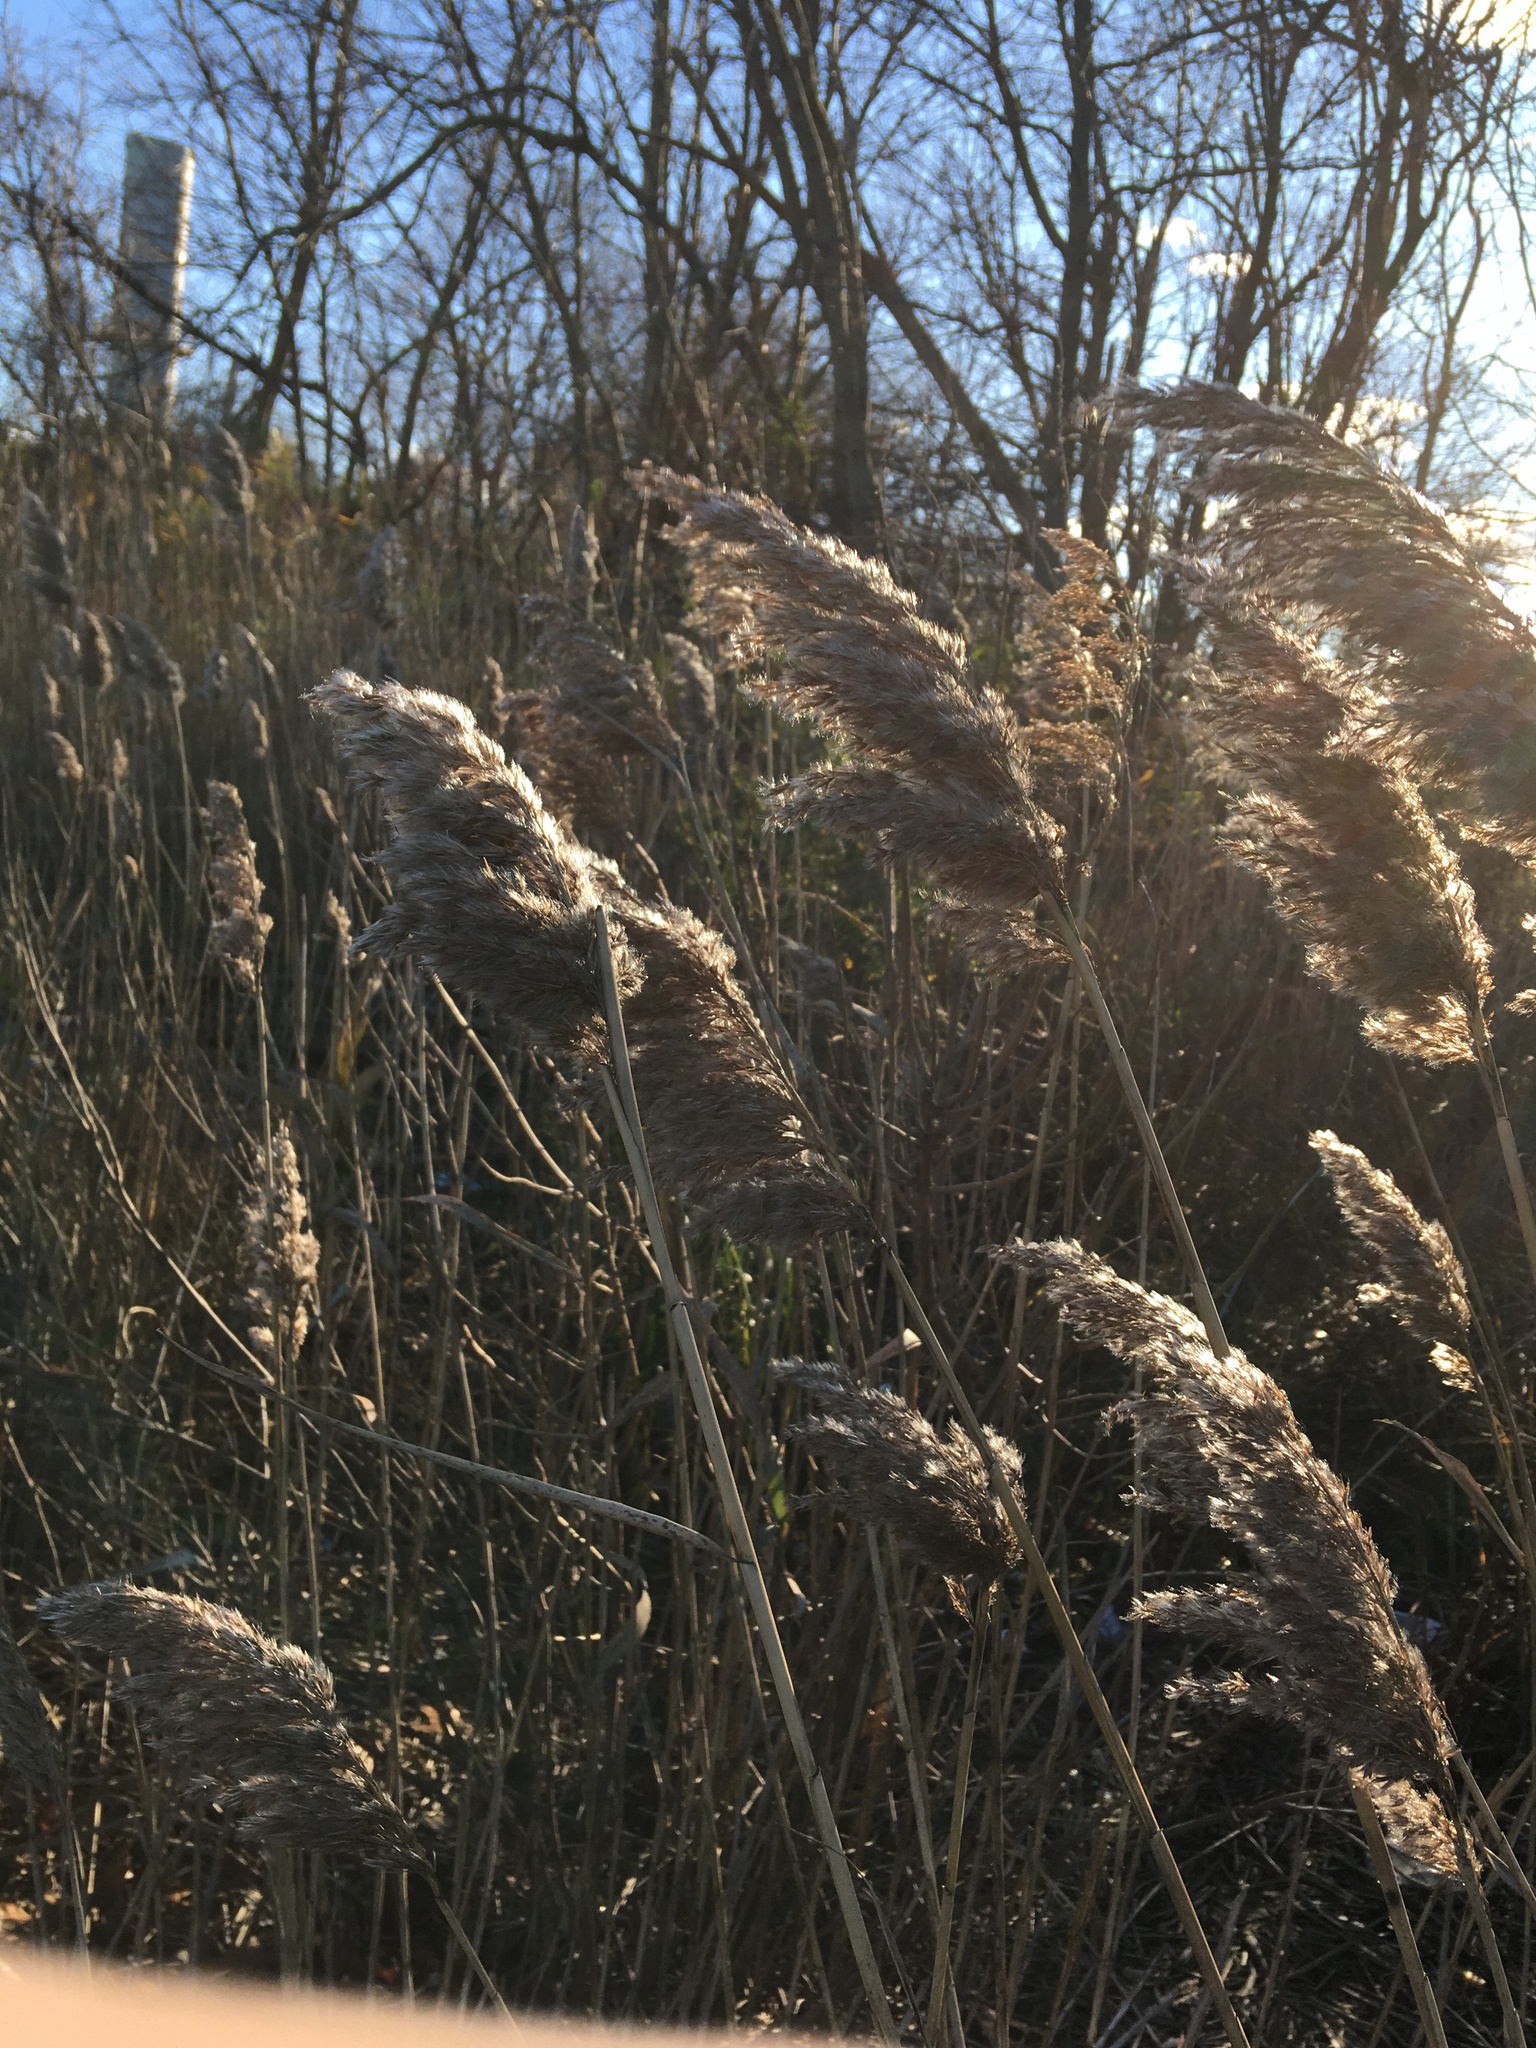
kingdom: Plantae
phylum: Tracheophyta
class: Liliopsida
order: Poales
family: Poaceae
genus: Phragmites
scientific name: Phragmites australis
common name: Common reed
